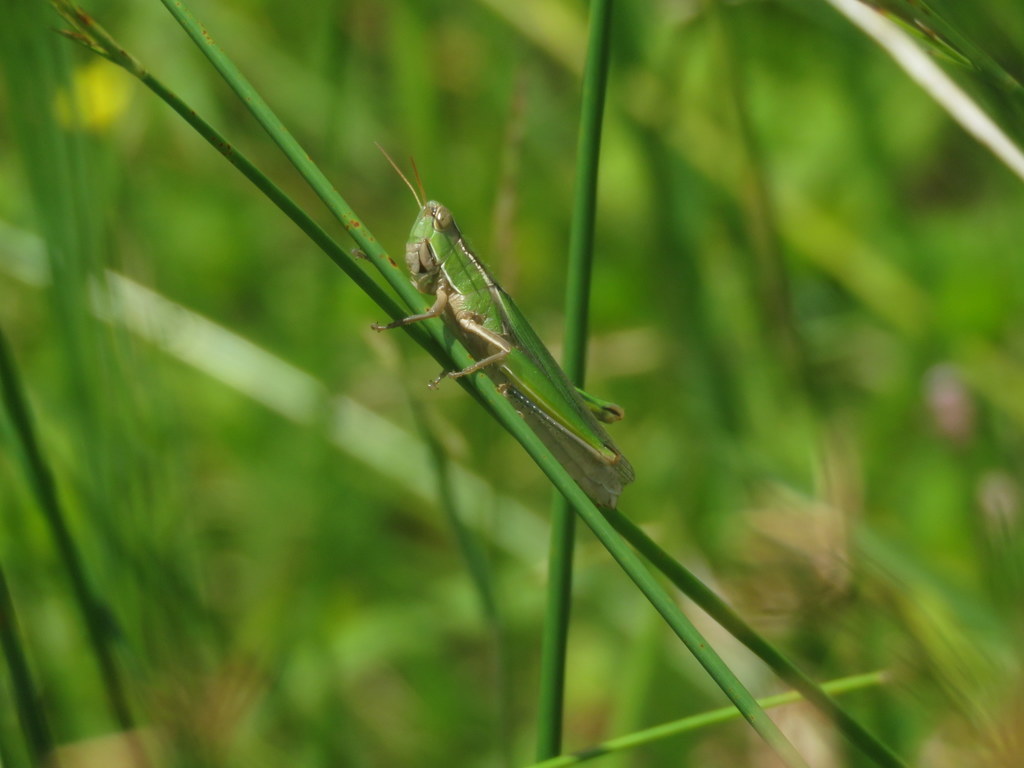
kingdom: Animalia
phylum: Arthropoda
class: Insecta
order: Orthoptera
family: Acrididae
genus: Aleuas
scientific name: Aleuas lineatus
